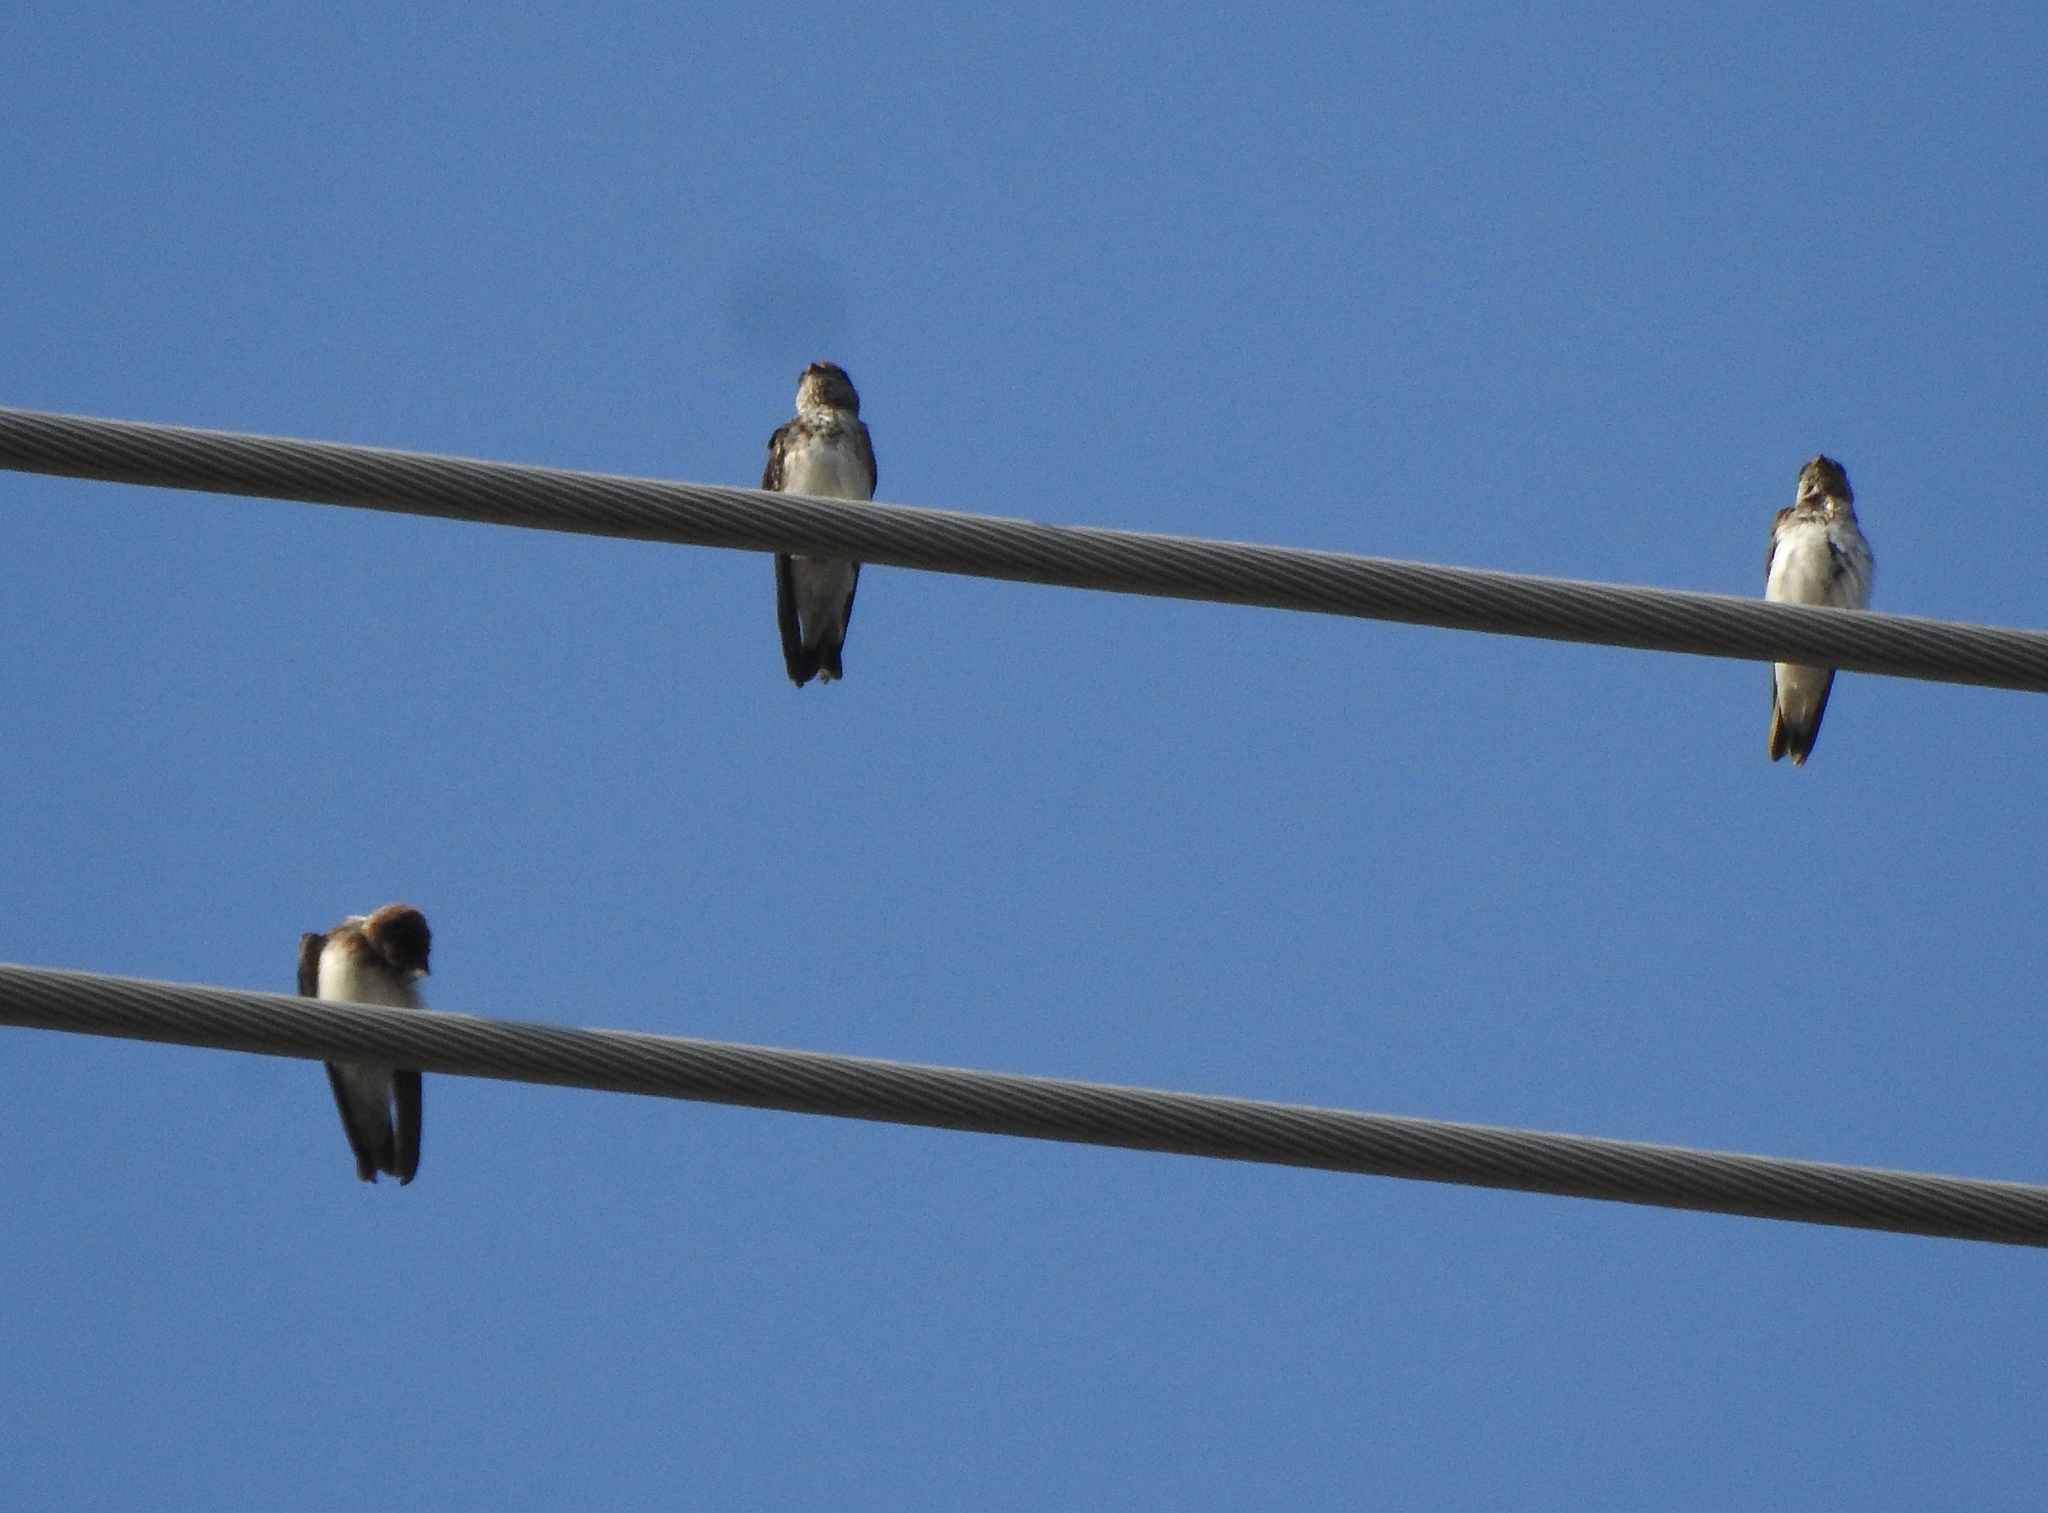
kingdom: Animalia
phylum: Chordata
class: Aves
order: Passeriformes
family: Hirundinidae
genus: Petrochelidon
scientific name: Petrochelidon fluvicola
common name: Streak-throated swallow
